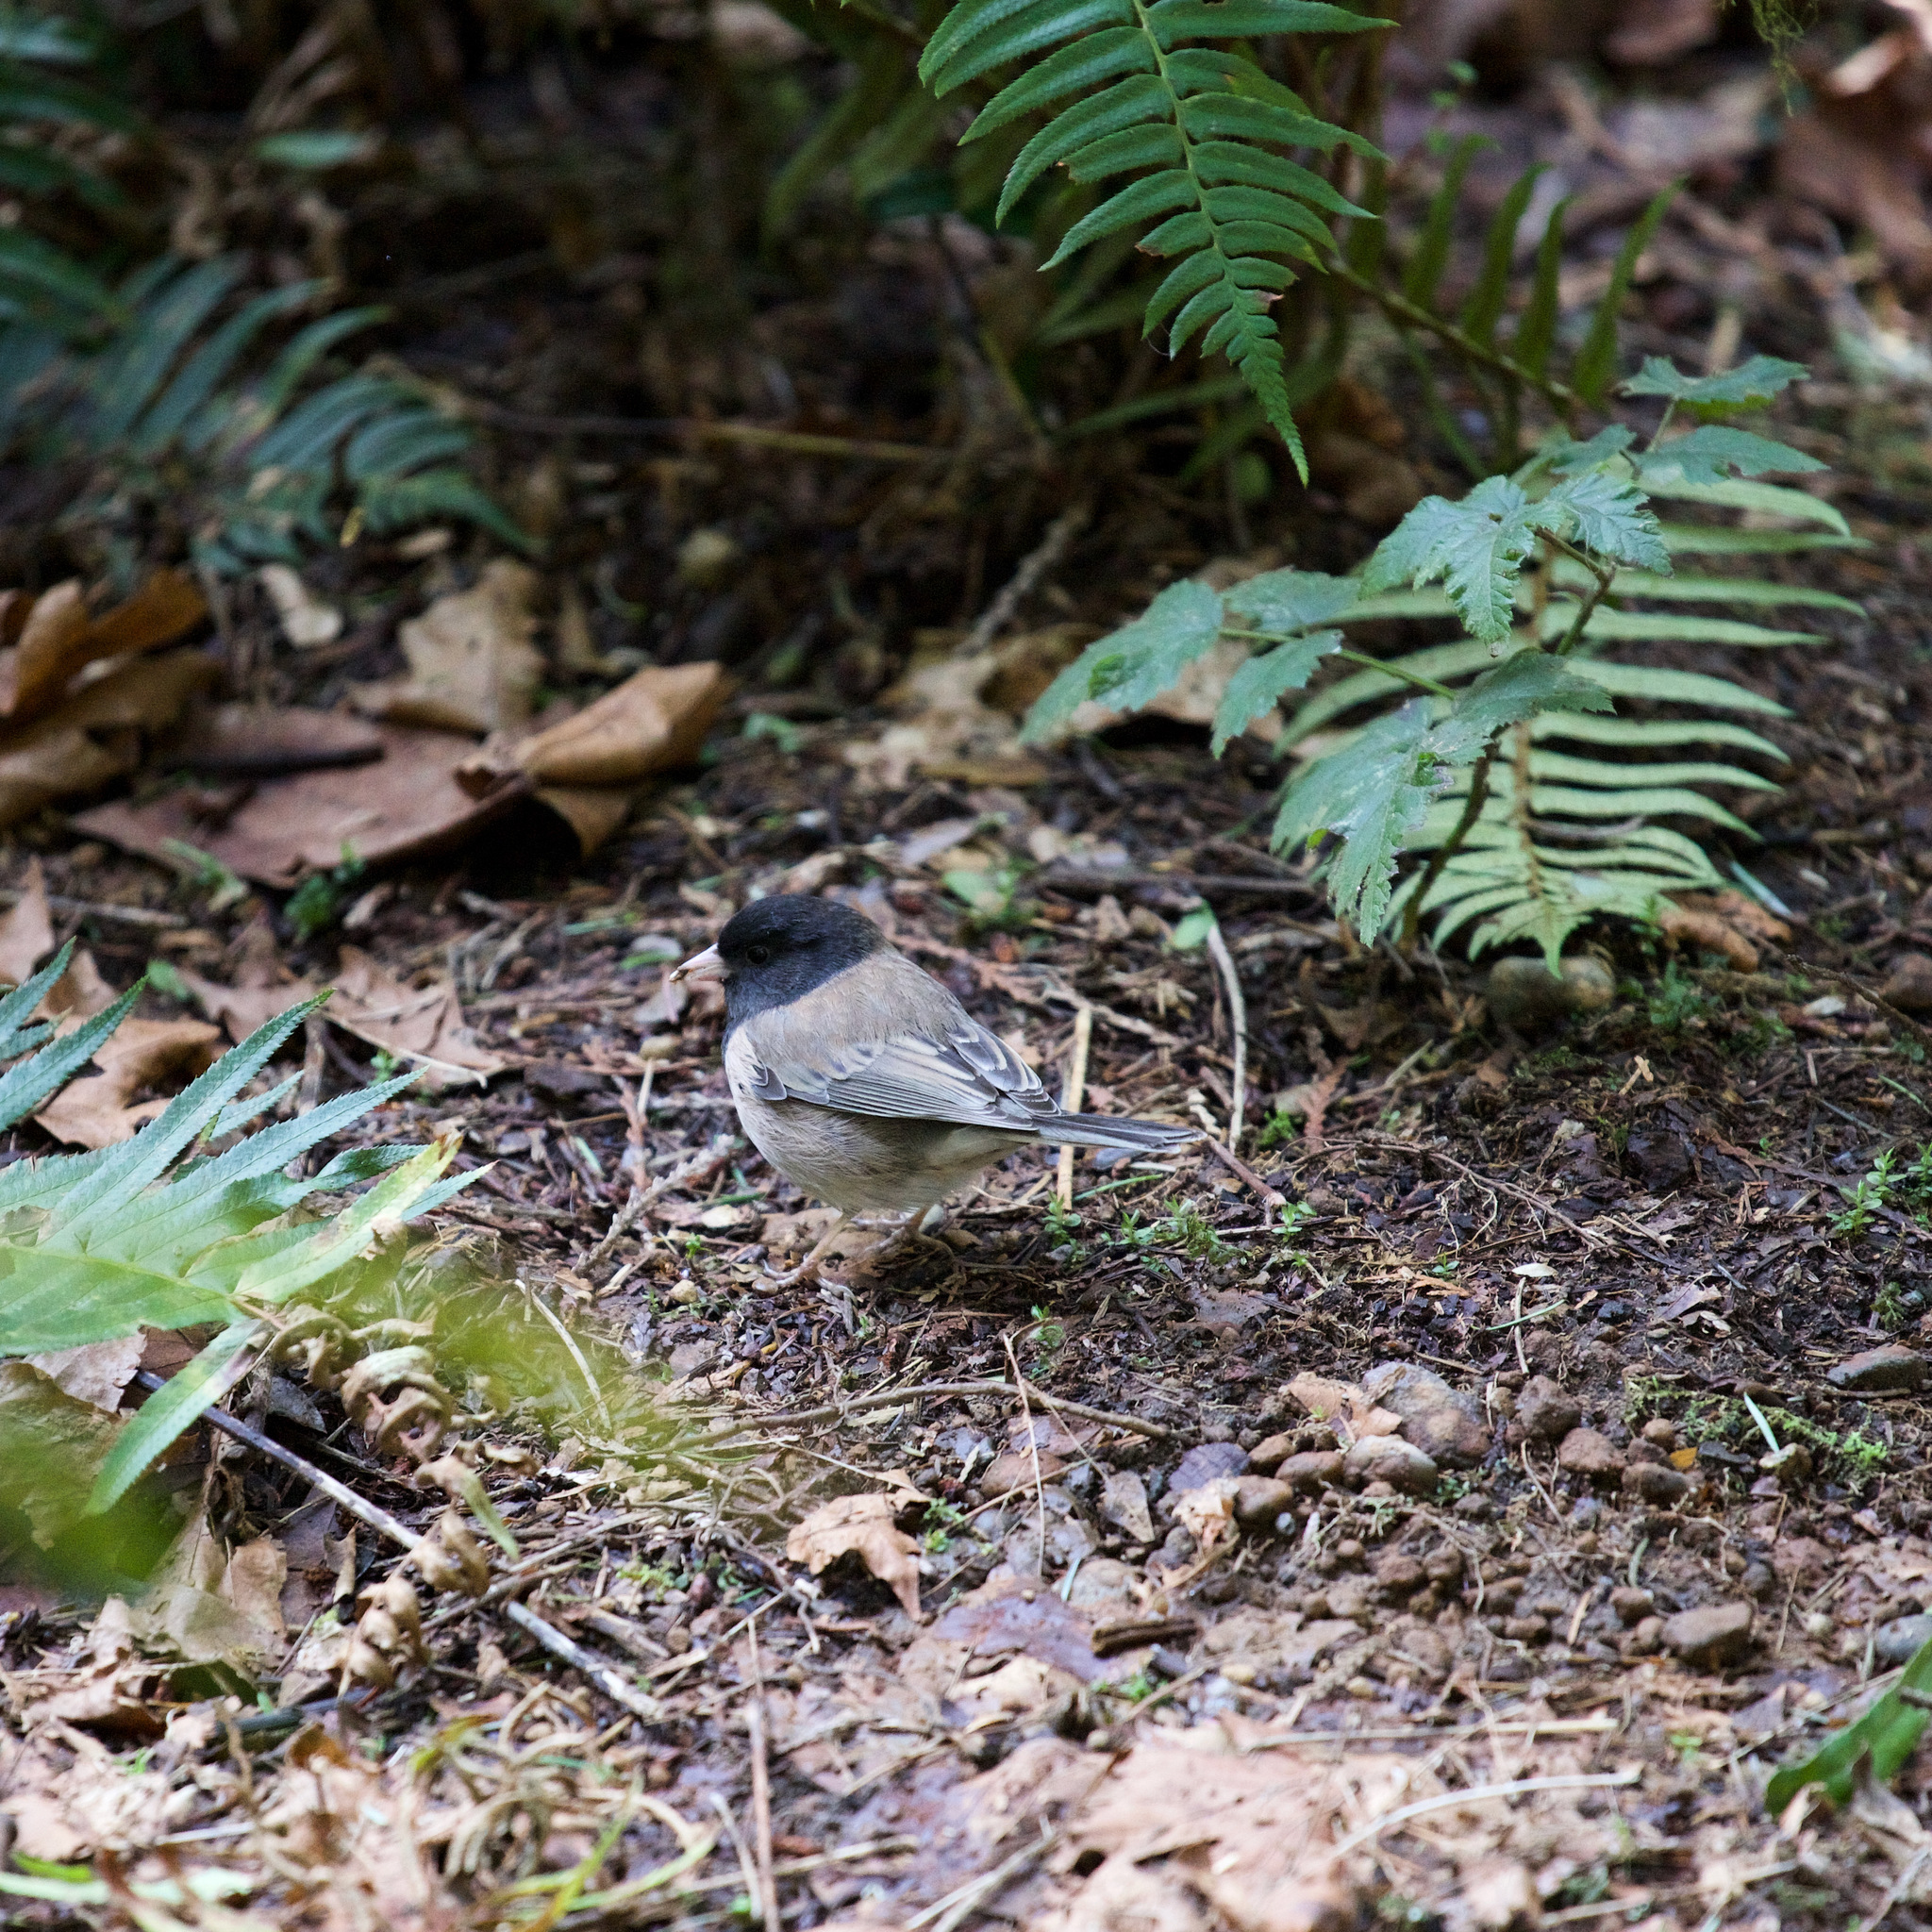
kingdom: Animalia
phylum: Chordata
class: Aves
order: Passeriformes
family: Passerellidae
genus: Junco
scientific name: Junco hyemalis
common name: Dark-eyed junco
